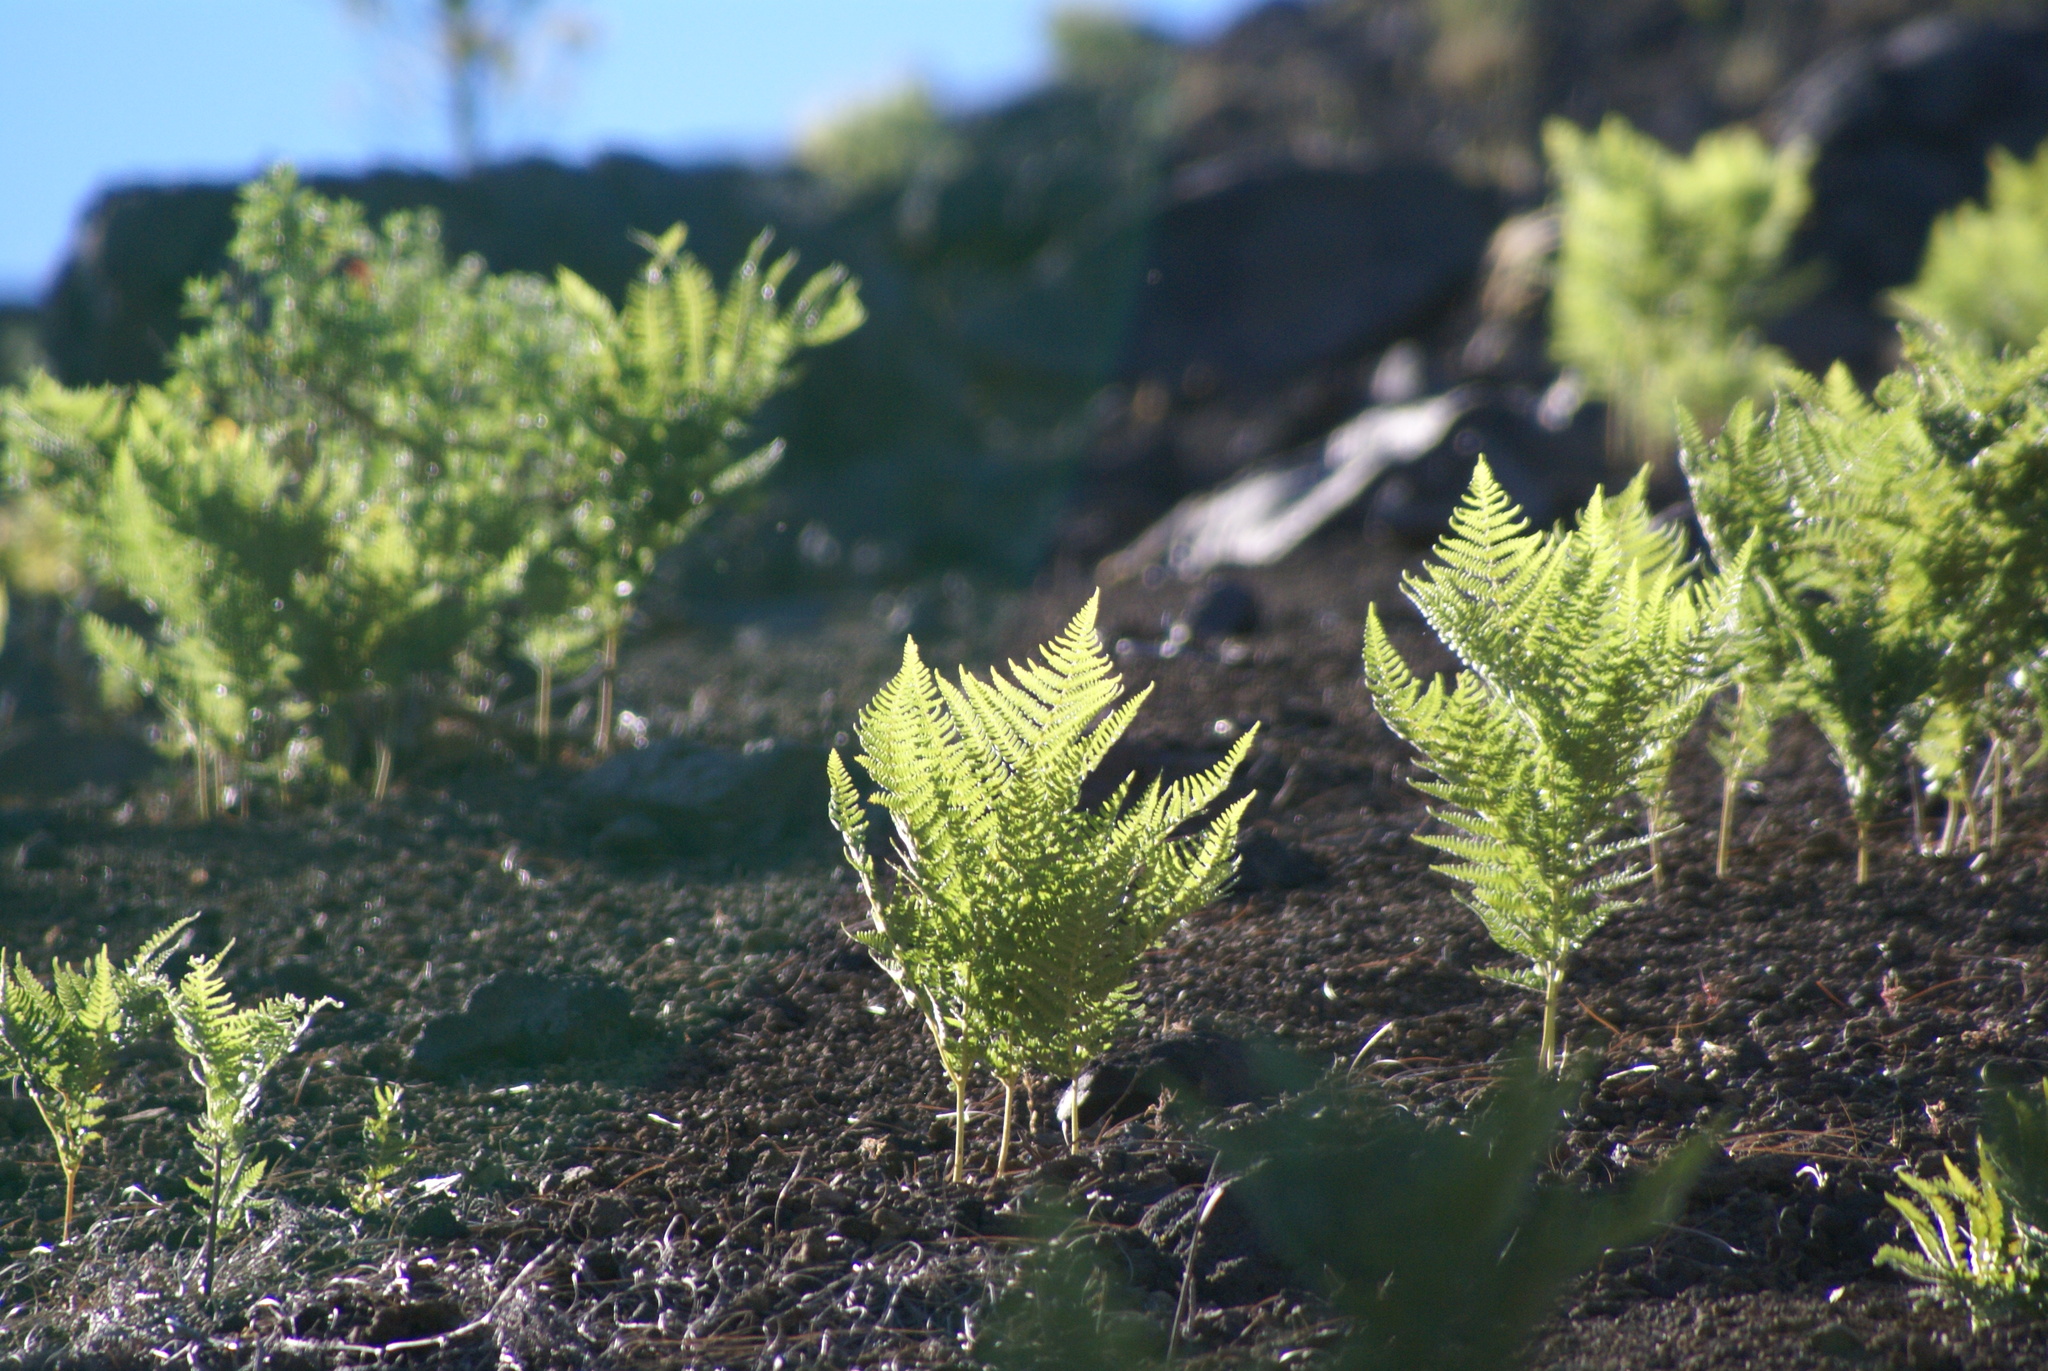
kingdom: Plantae
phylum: Tracheophyta
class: Polypodiopsida
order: Polypodiales
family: Dennstaedtiaceae
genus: Pteridium
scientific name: Pteridium aquilinum
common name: Bracken
